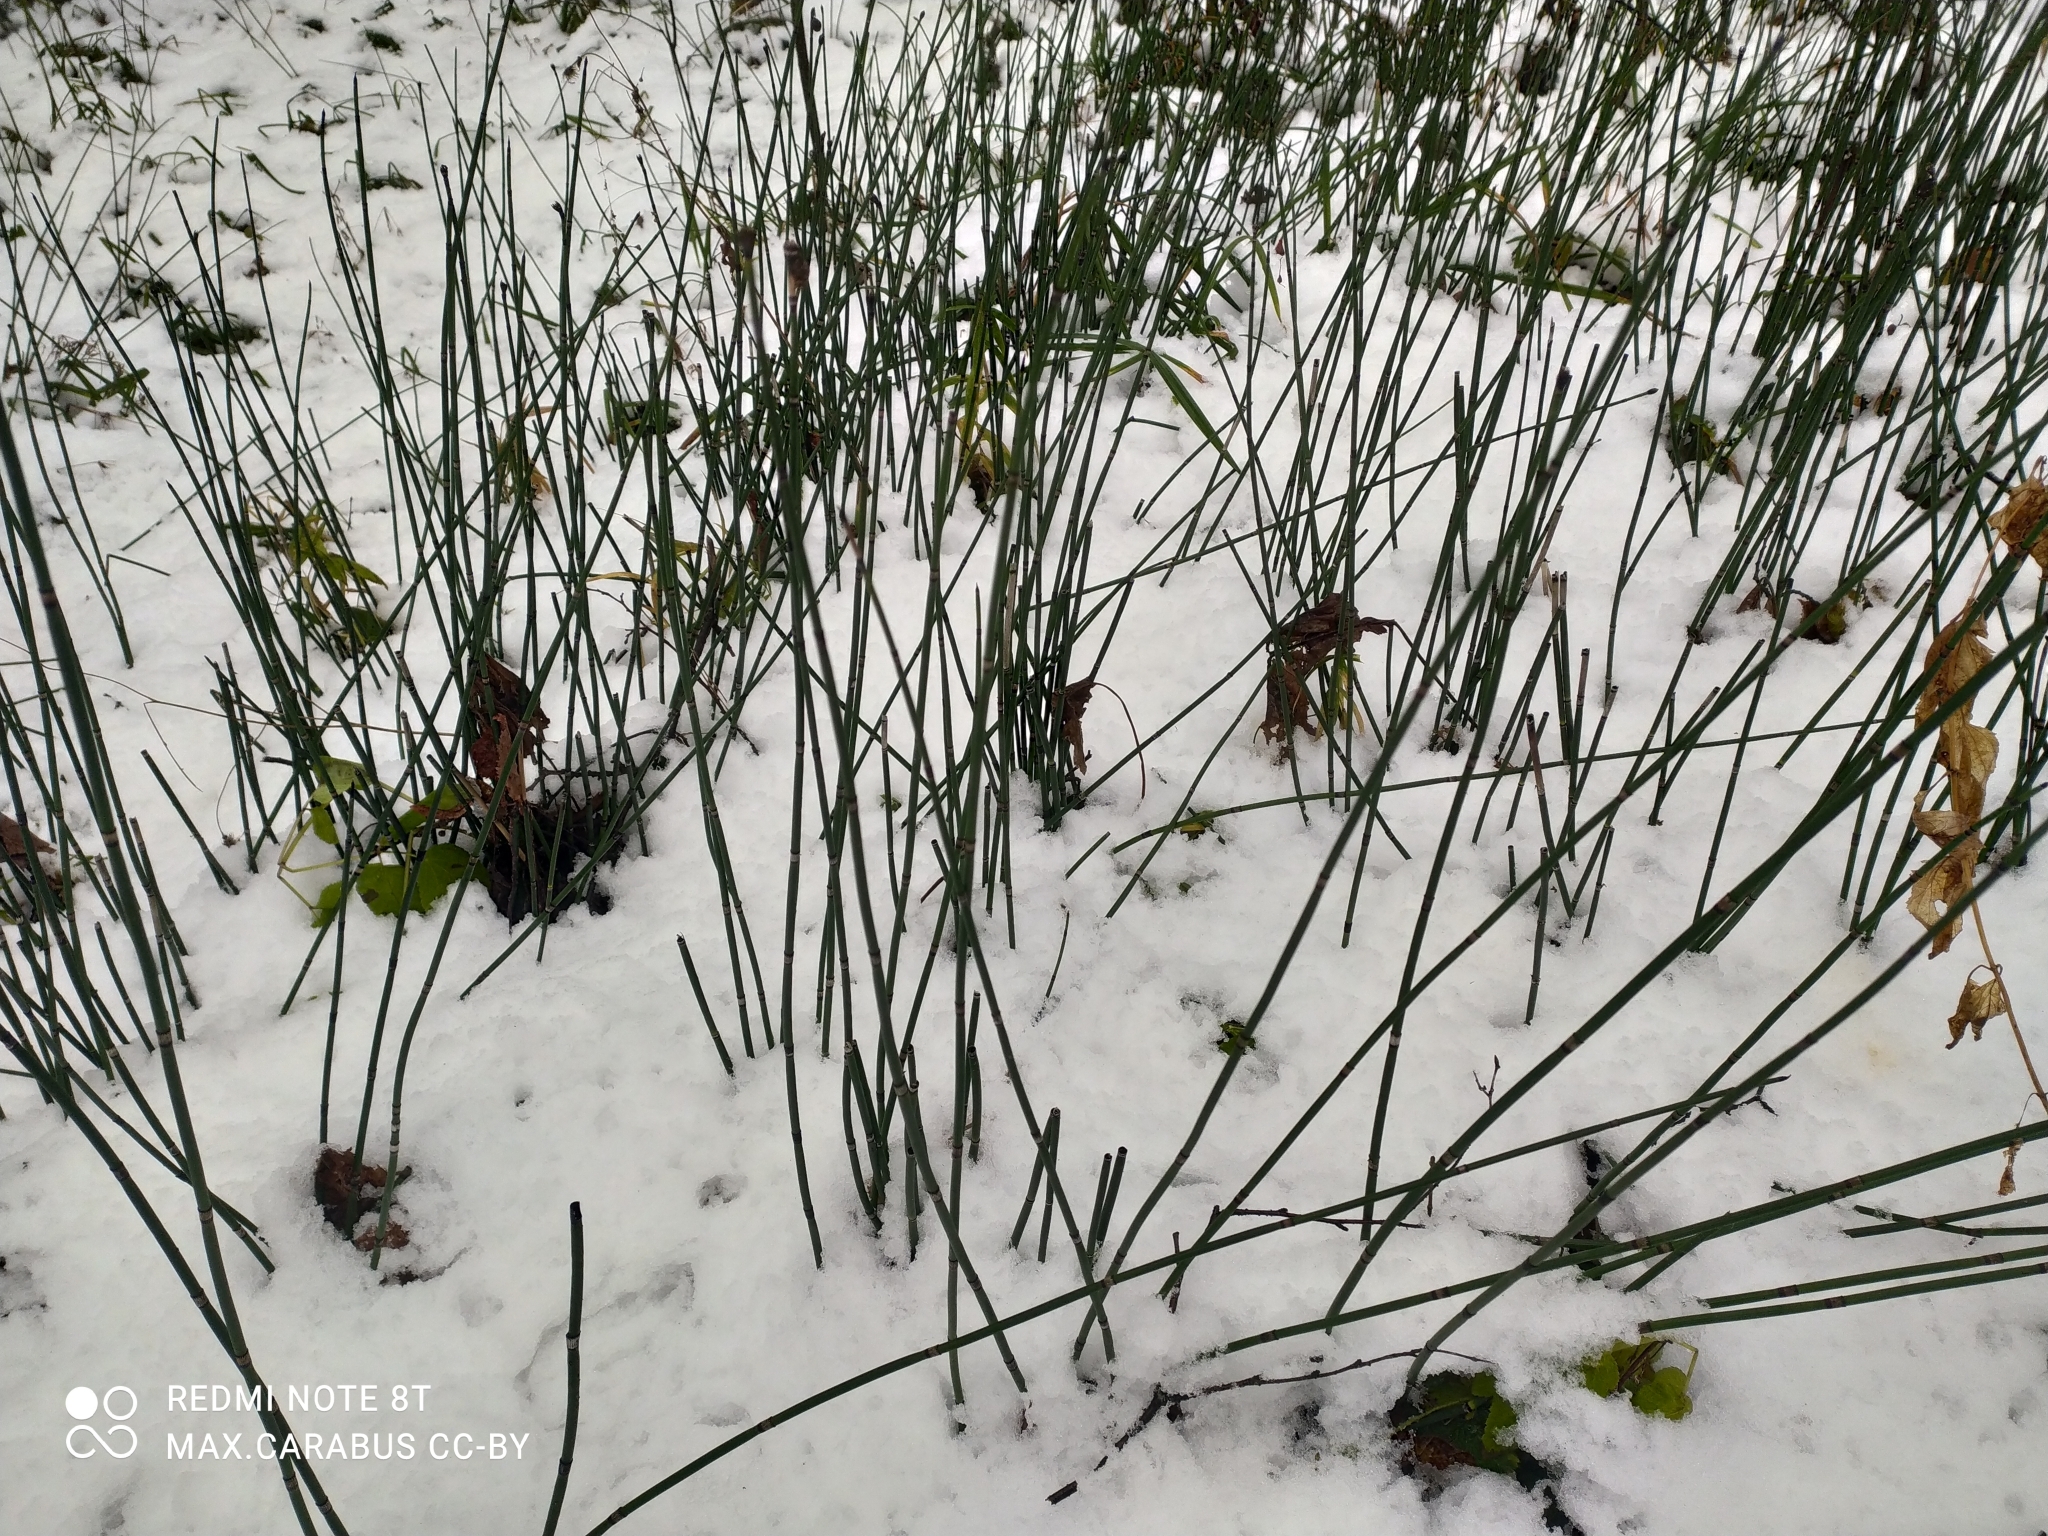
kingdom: Plantae
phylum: Tracheophyta
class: Polypodiopsida
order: Equisetales
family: Equisetaceae
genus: Equisetum
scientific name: Equisetum hyemale
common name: Rough horsetail
